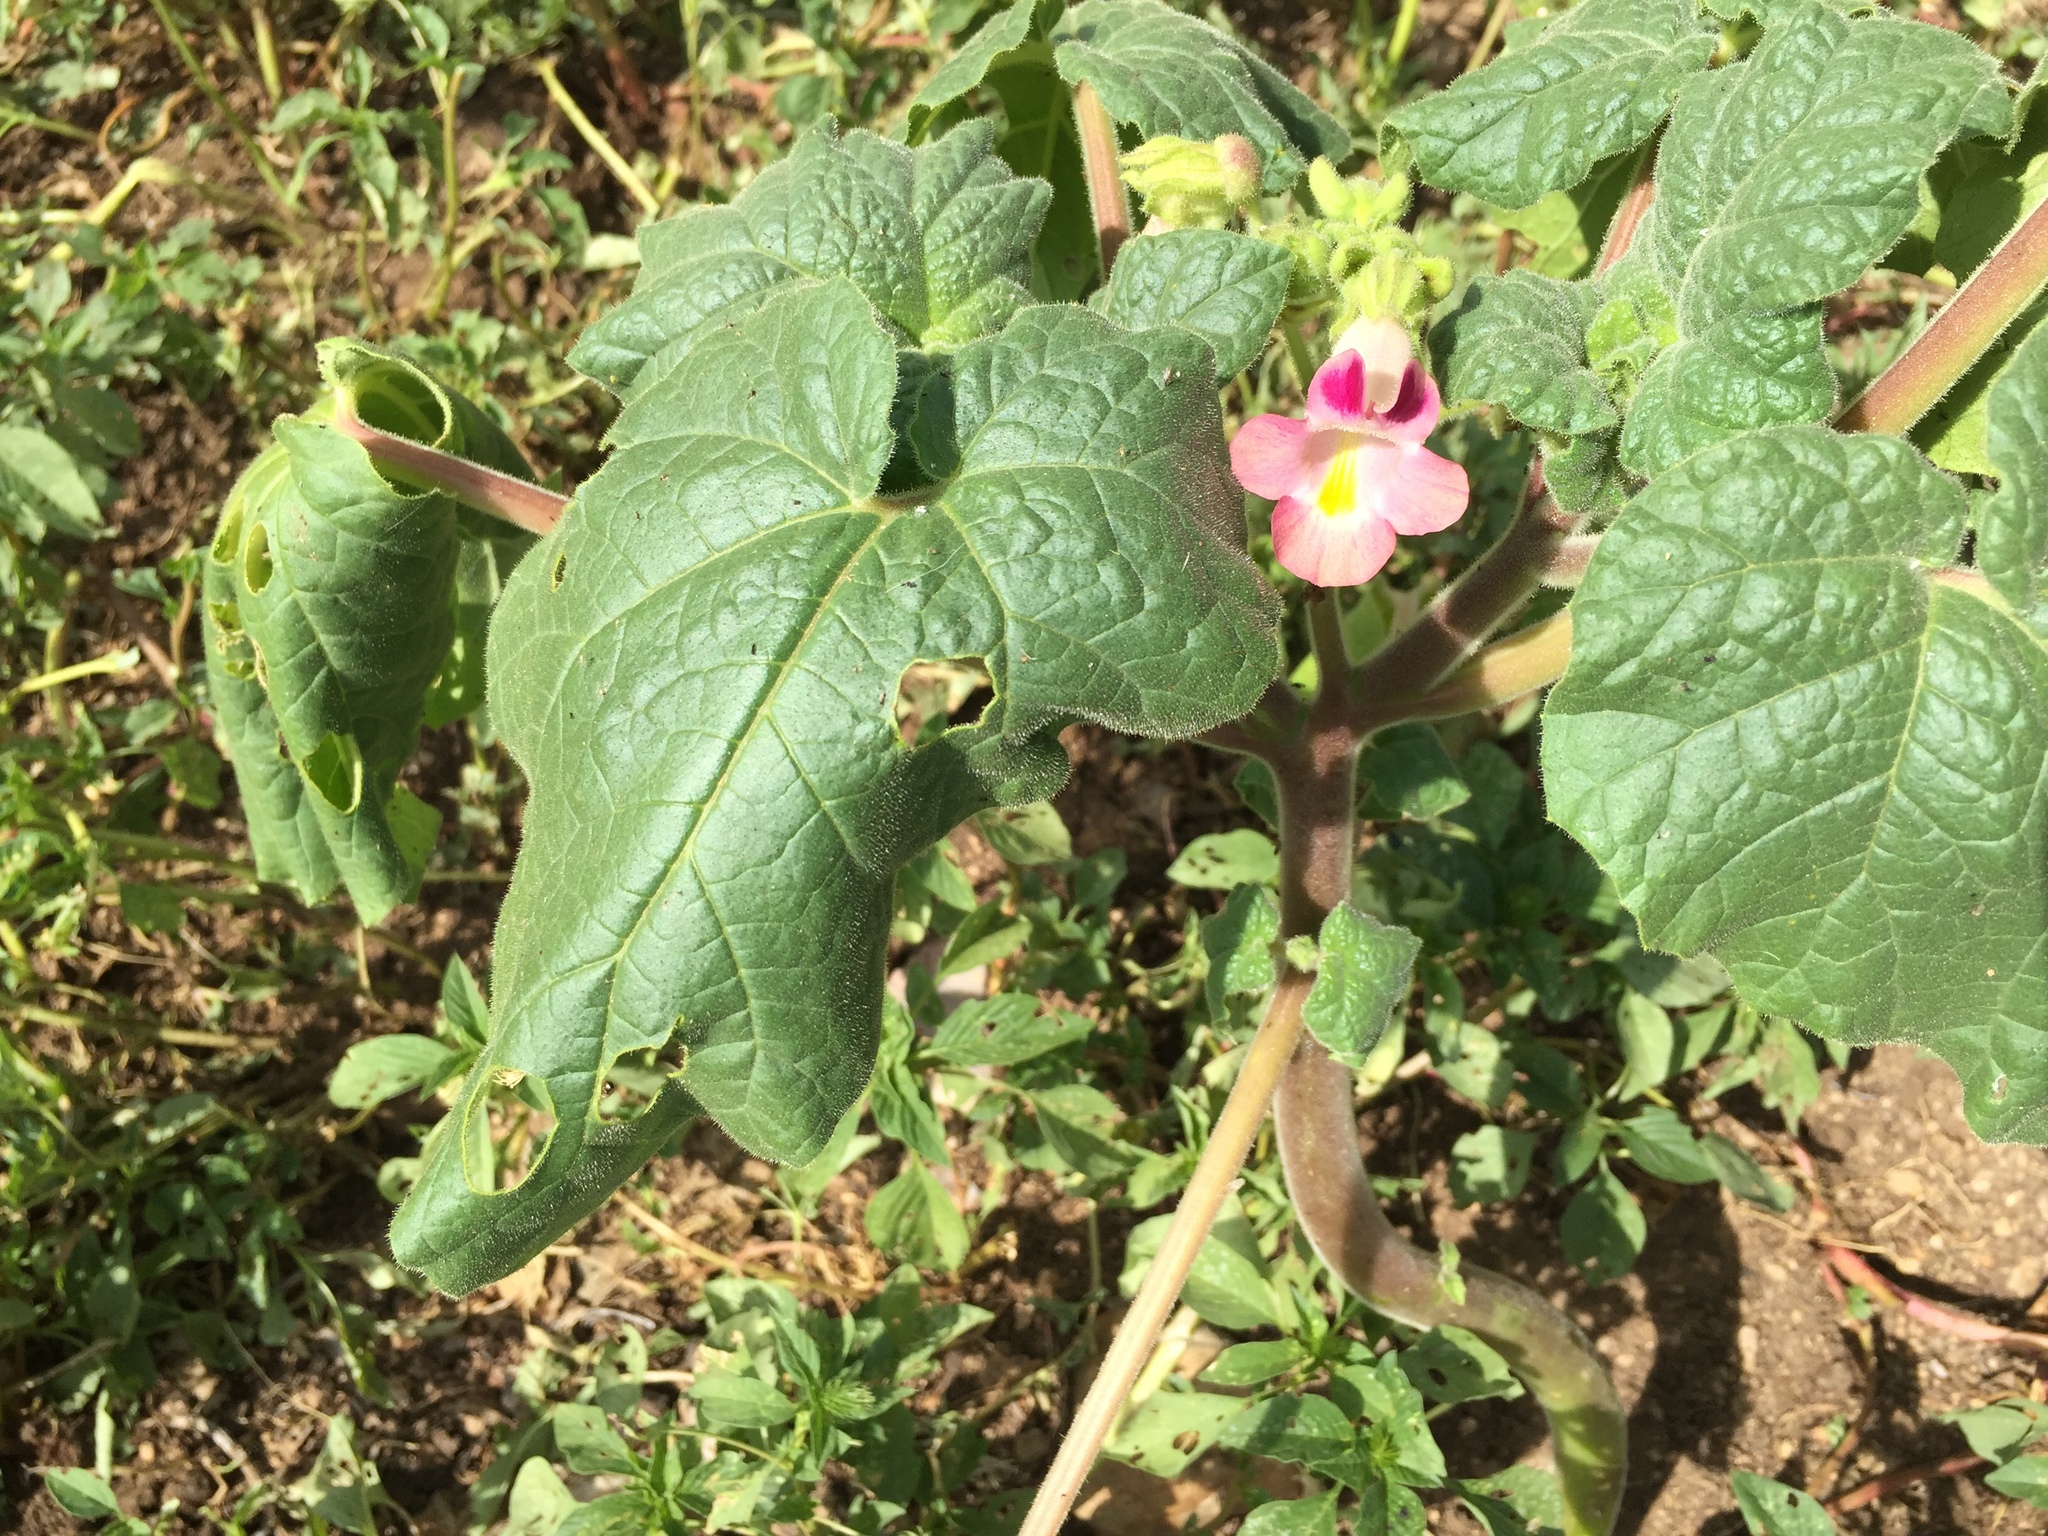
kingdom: Plantae
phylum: Tracheophyta
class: Magnoliopsida
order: Lamiales
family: Martyniaceae
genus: Proboscidea
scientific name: Proboscidea louisianica
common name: Elephant tusks
